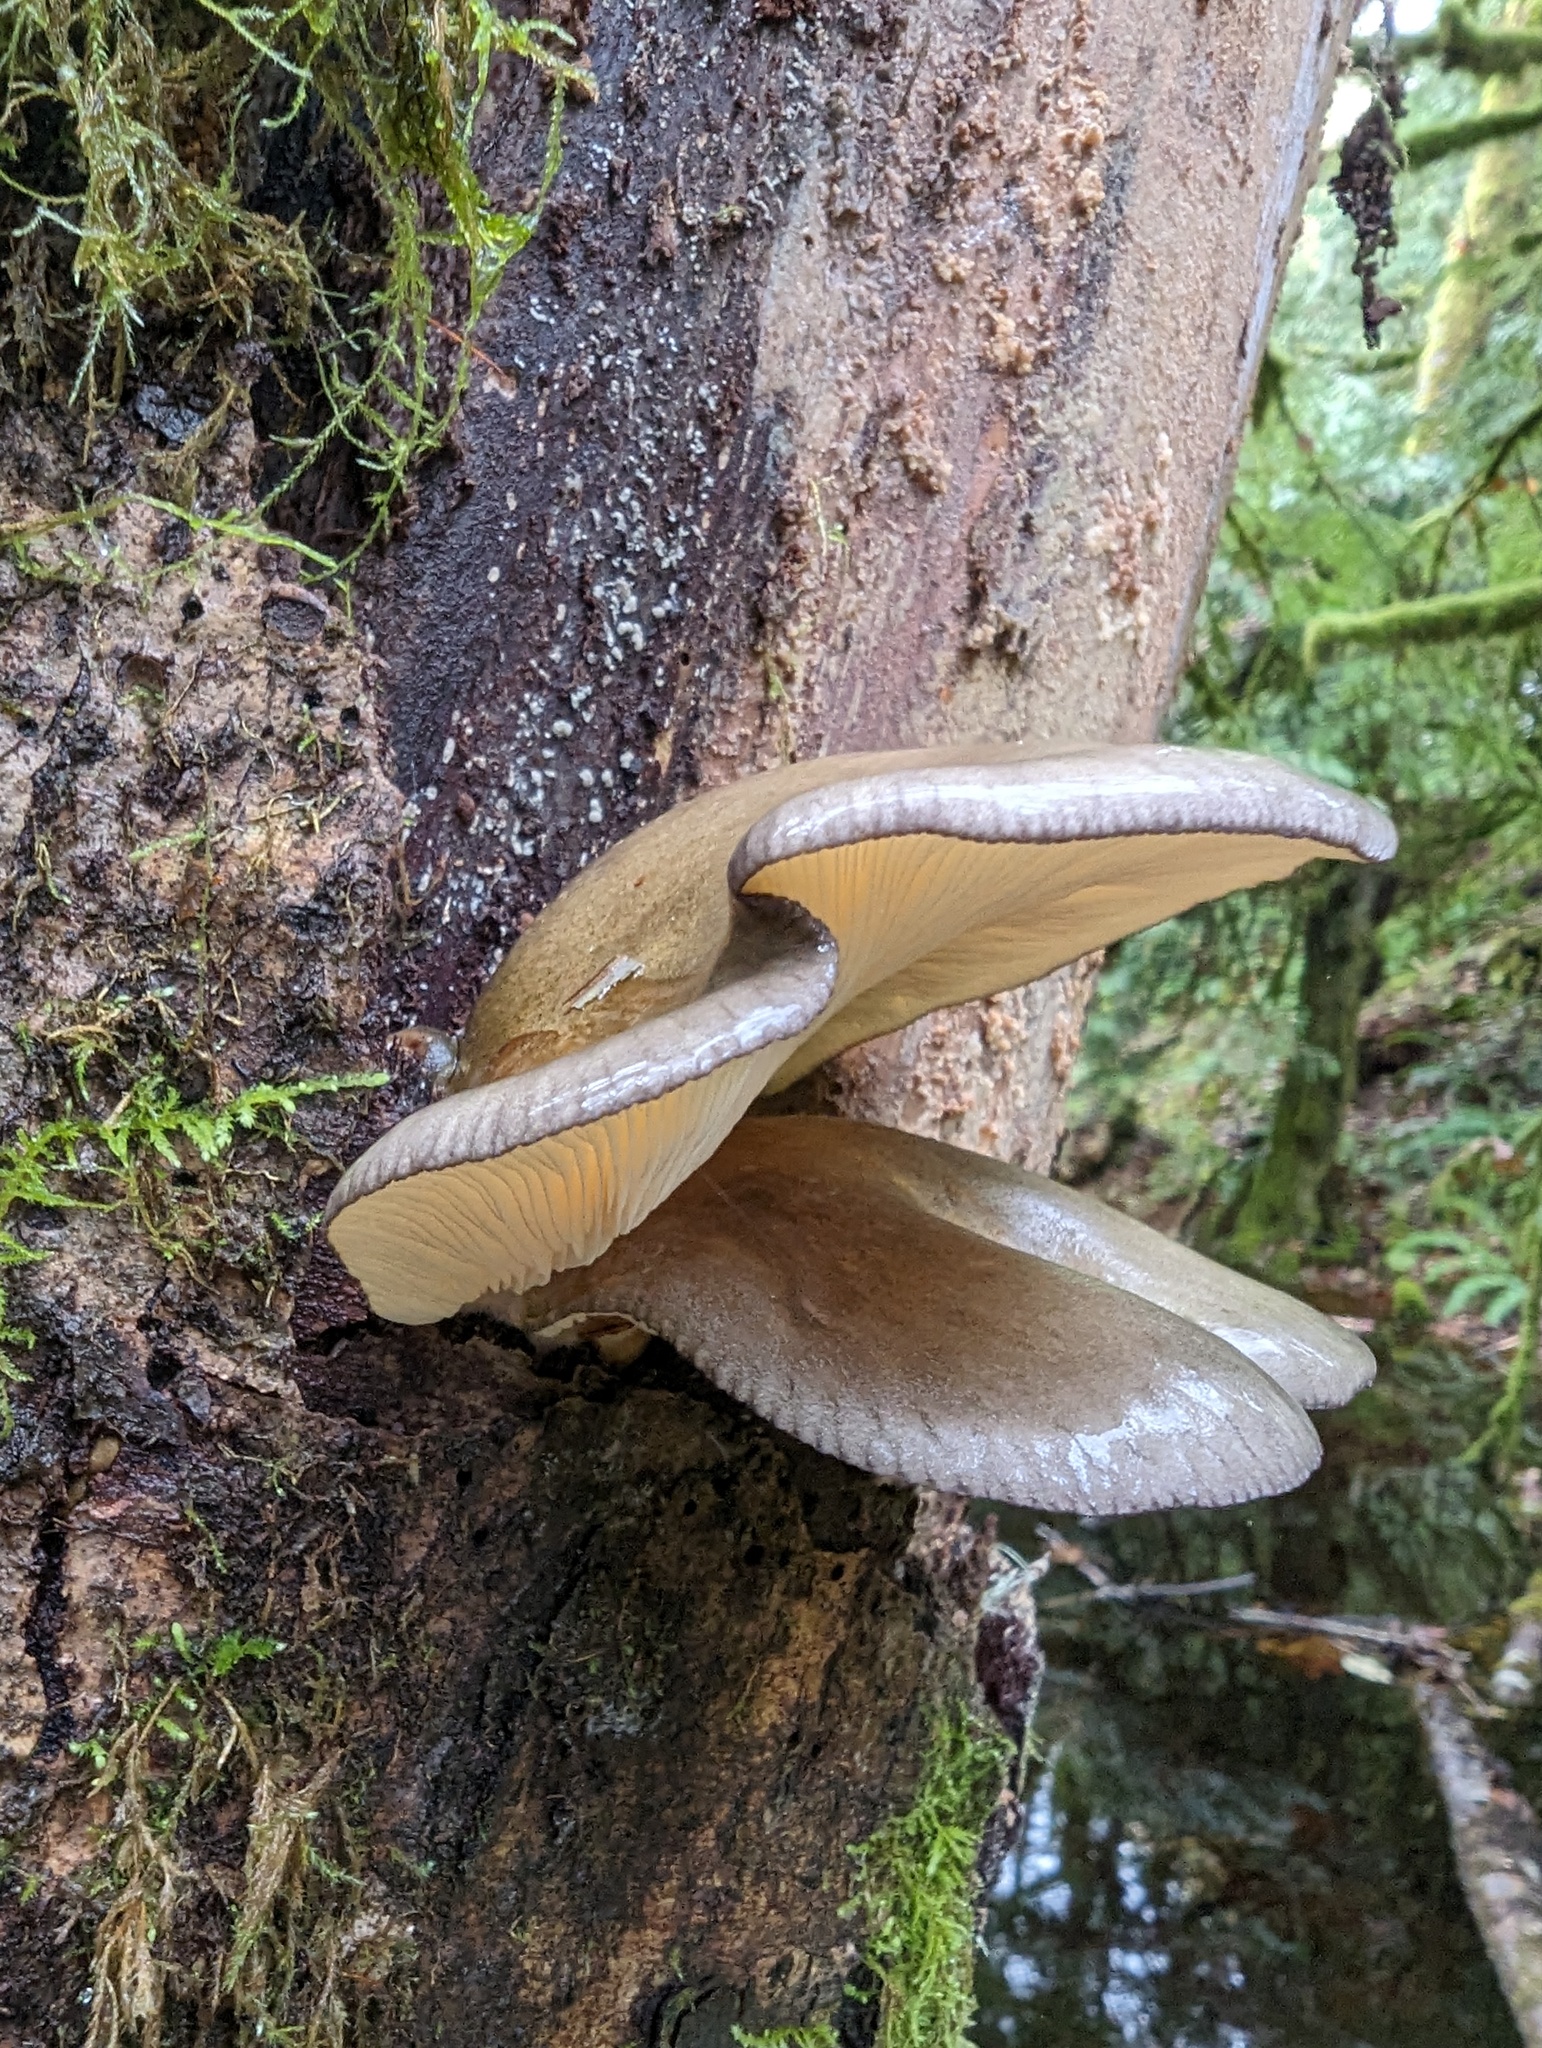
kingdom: Fungi
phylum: Basidiomycota
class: Agaricomycetes
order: Agaricales
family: Sarcomyxaceae
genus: Sarcomyxa
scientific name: Sarcomyxa serotina
